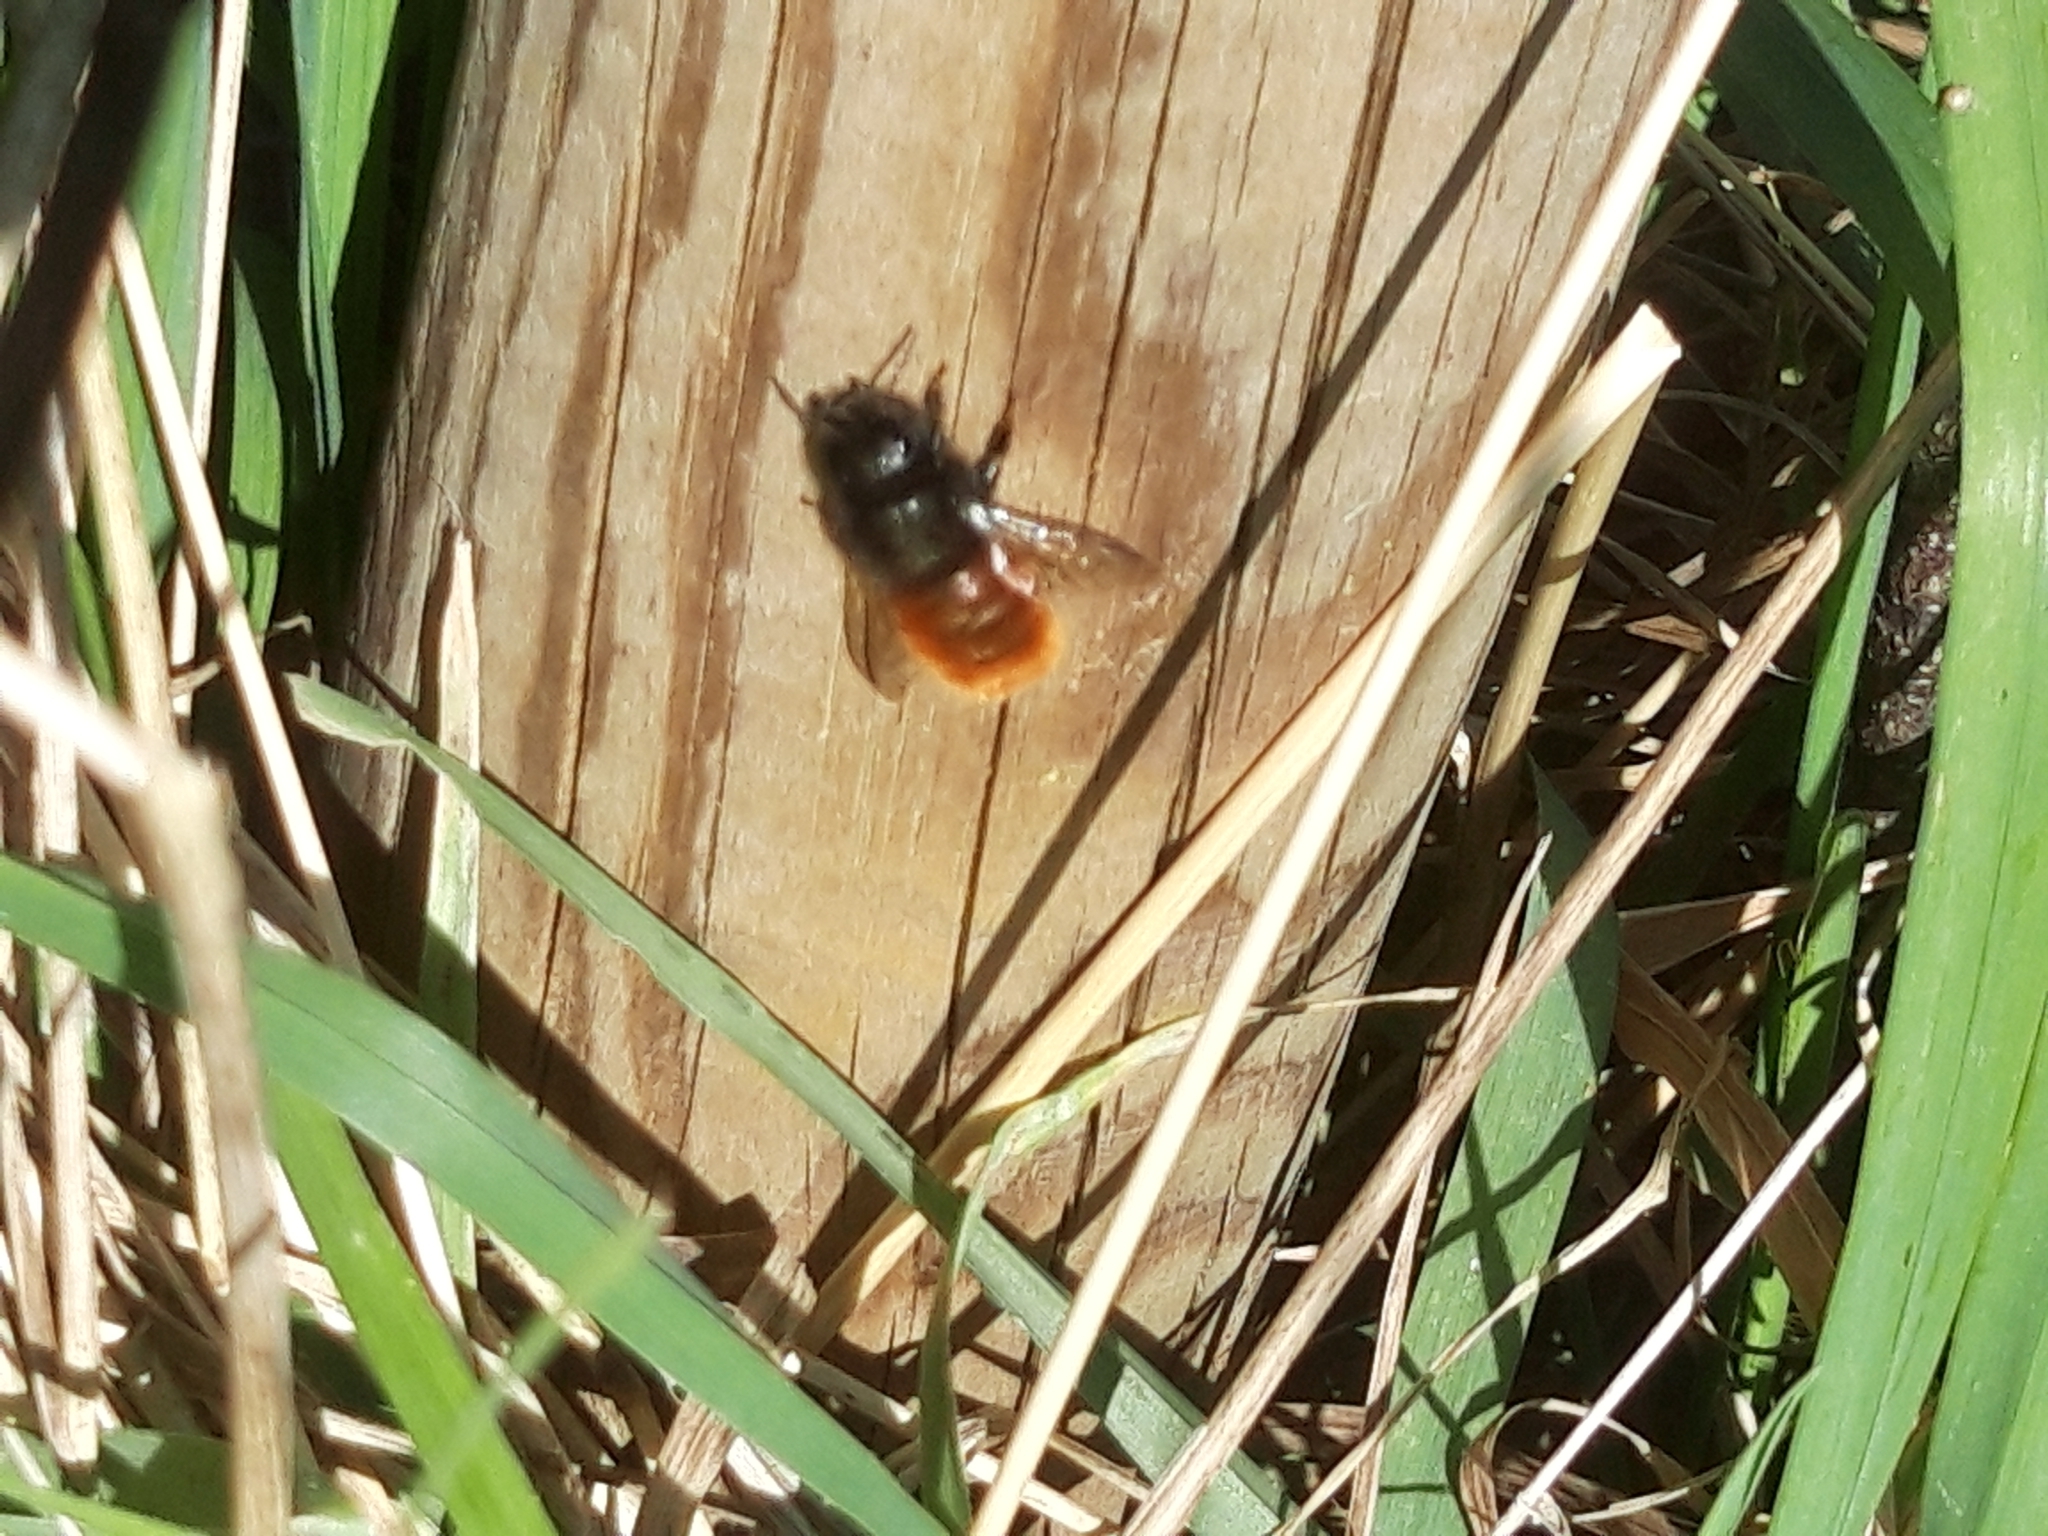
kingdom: Animalia
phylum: Arthropoda
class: Insecta
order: Hymenoptera
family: Megachilidae
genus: Osmia
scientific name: Osmia cornuta
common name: Mason bee
